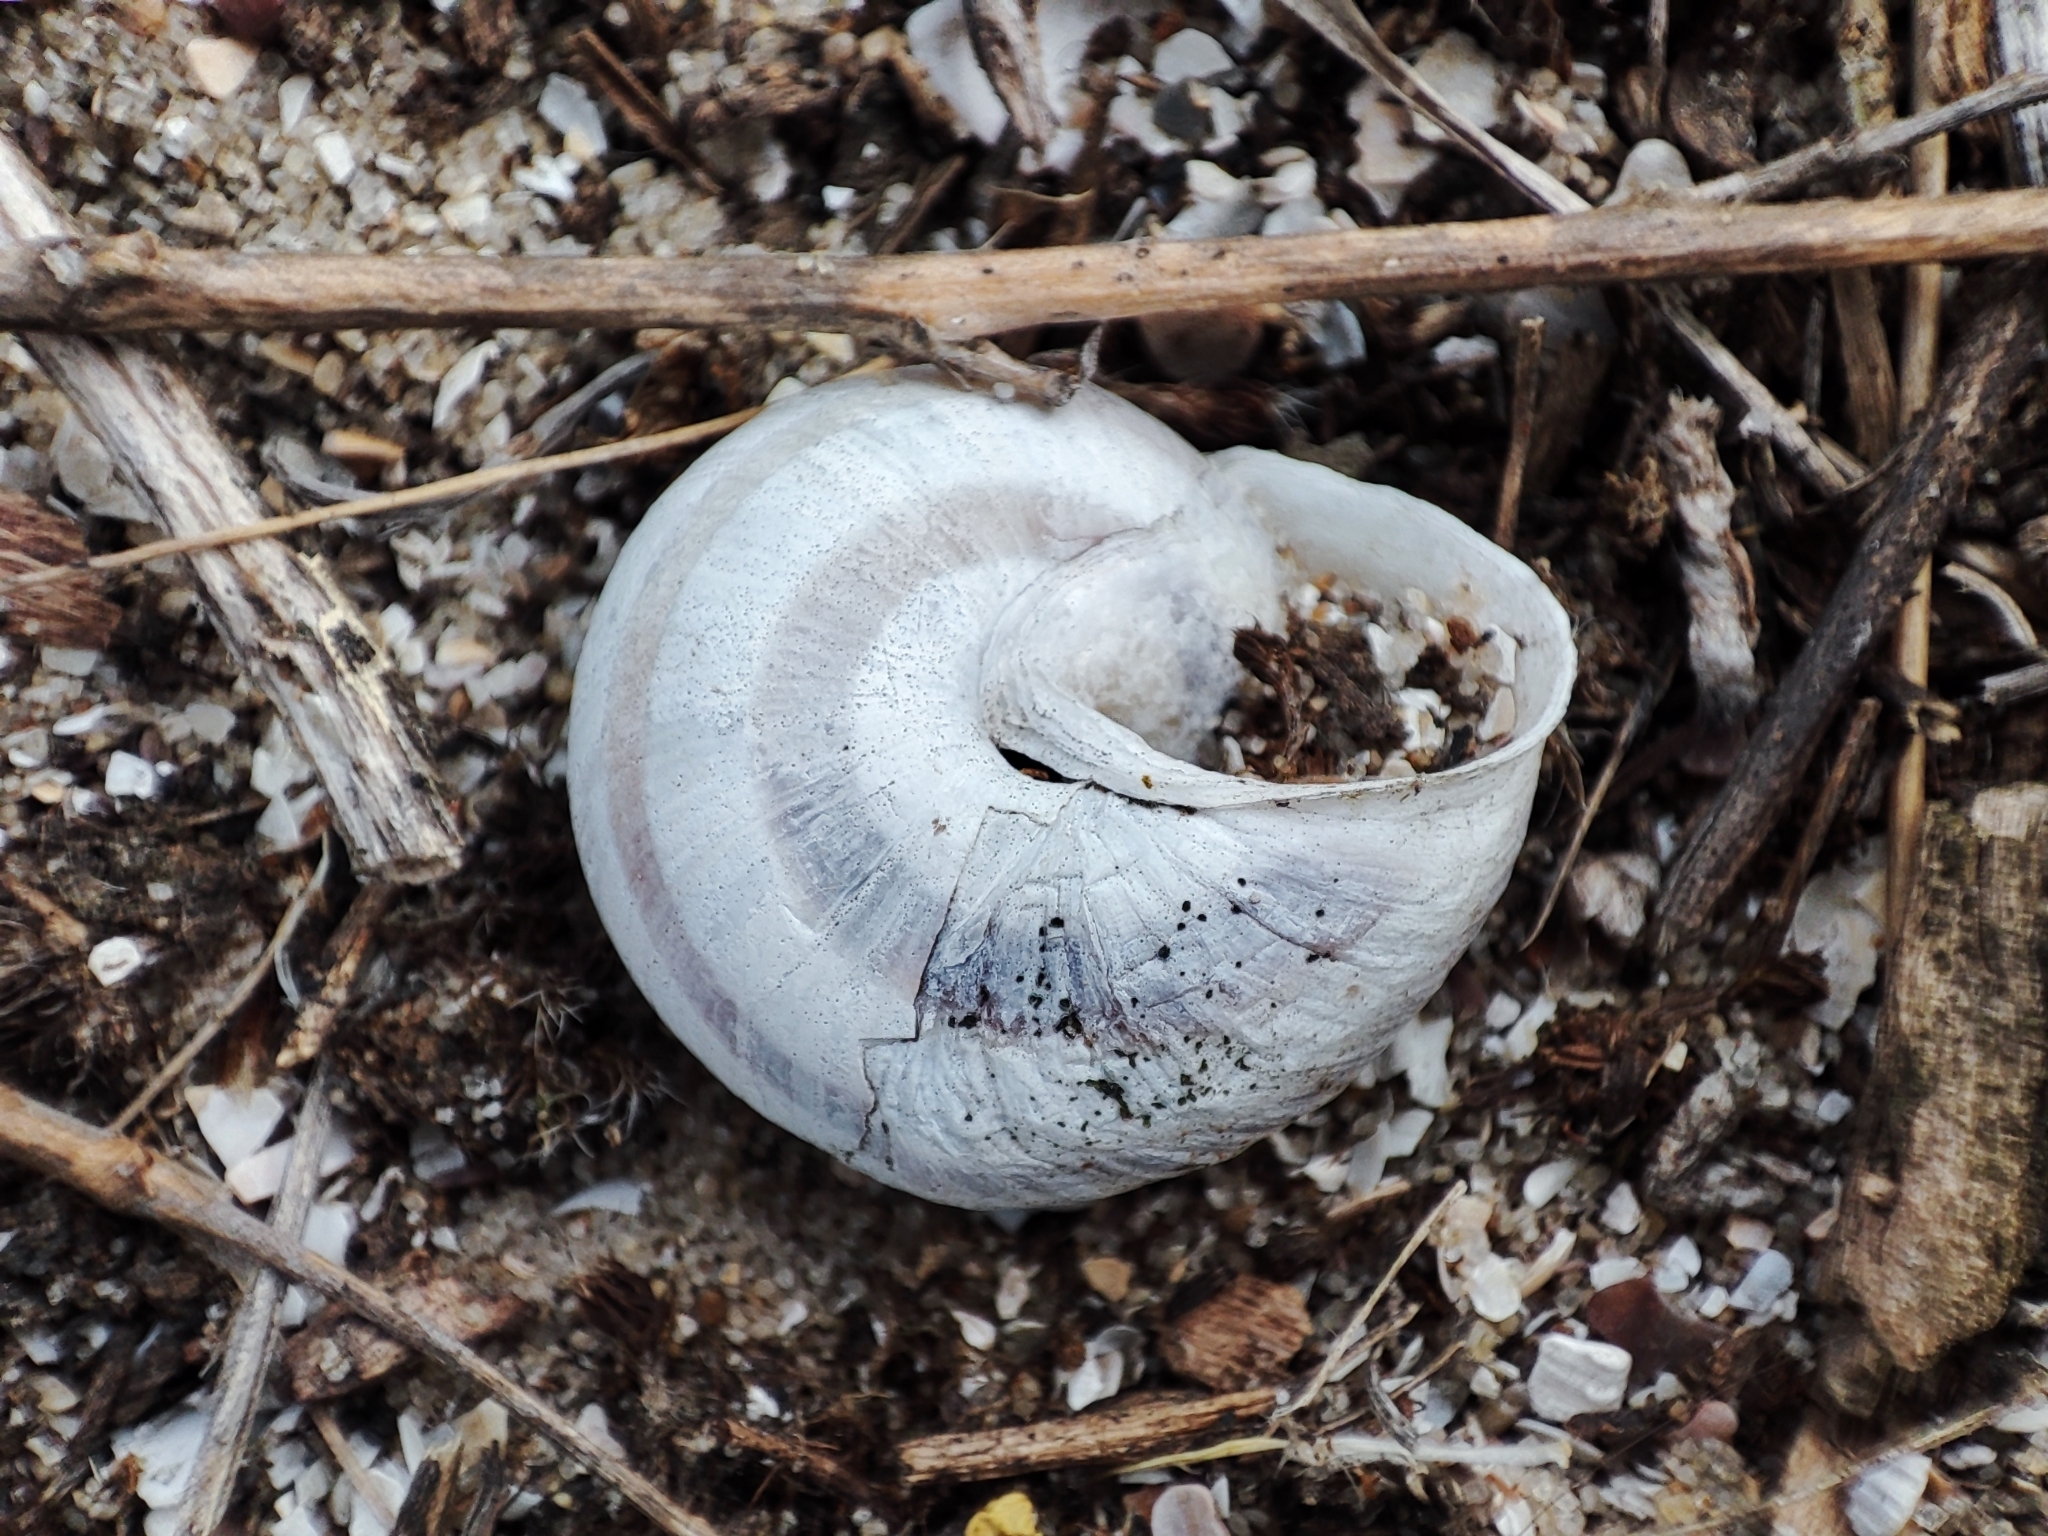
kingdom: Animalia
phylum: Mollusca
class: Gastropoda
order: Stylommatophora
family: Helicidae
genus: Caucasotachea
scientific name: Caucasotachea vindobonensis
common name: European helicid land snail
